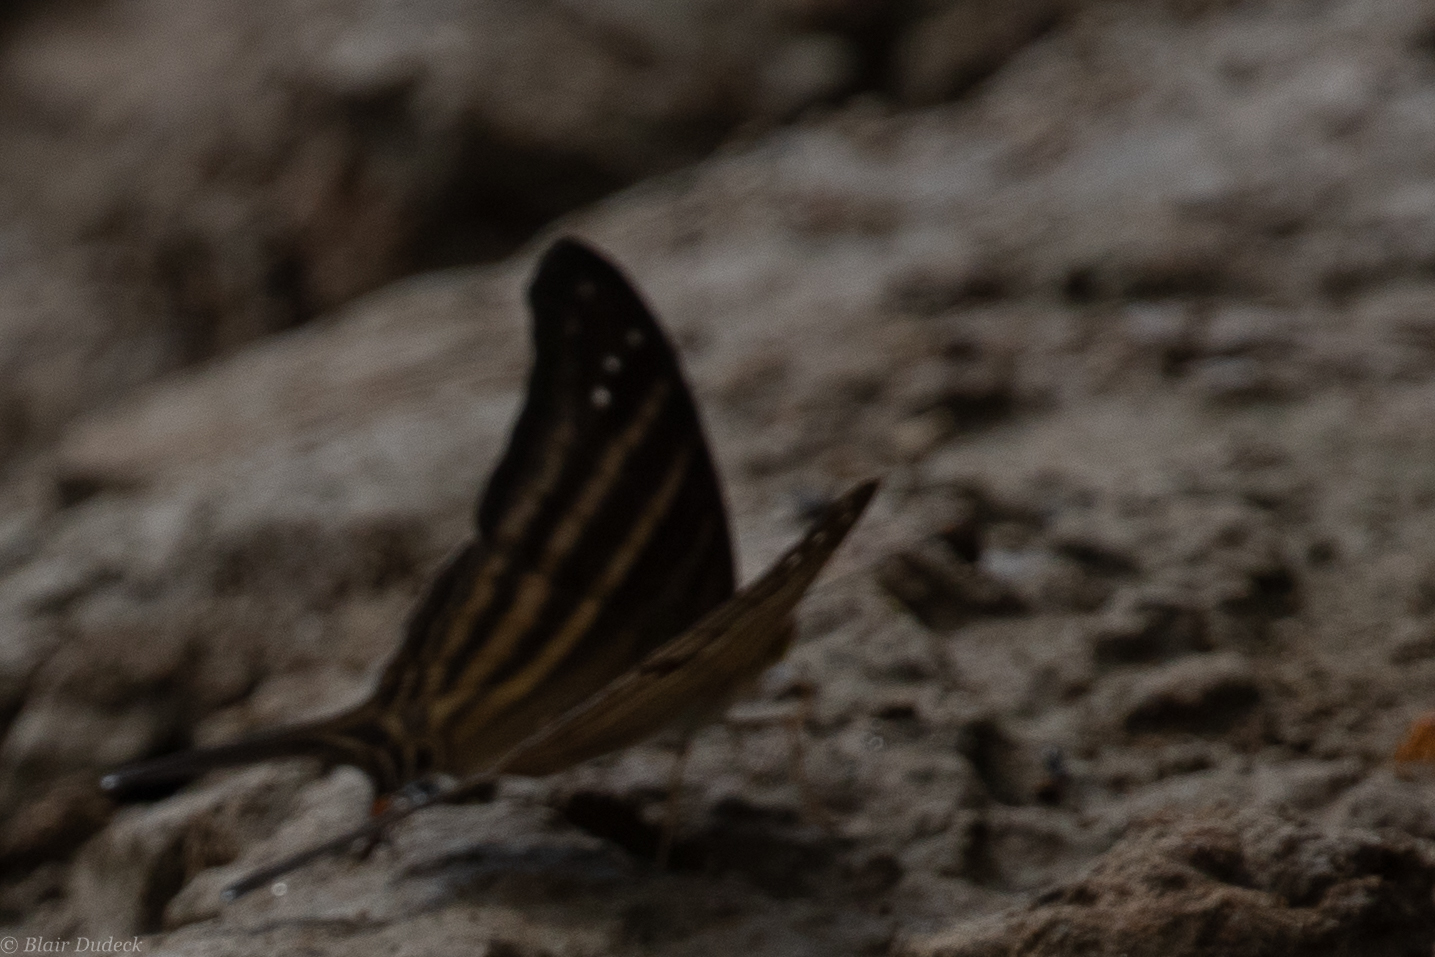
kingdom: Animalia
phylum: Arthropoda
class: Insecta
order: Lepidoptera
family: Nymphalidae
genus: Marpesia
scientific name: Marpesia chiron
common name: Many-banded daggerwing
